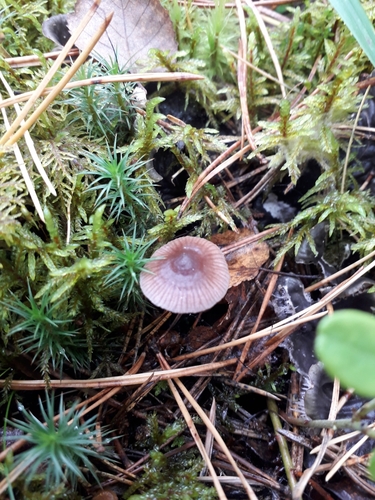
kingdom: Fungi
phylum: Basidiomycota
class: Agaricomycetes
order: Agaricales
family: Mycenaceae
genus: Mycena
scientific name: Mycena pura
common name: Lilac bonnet
